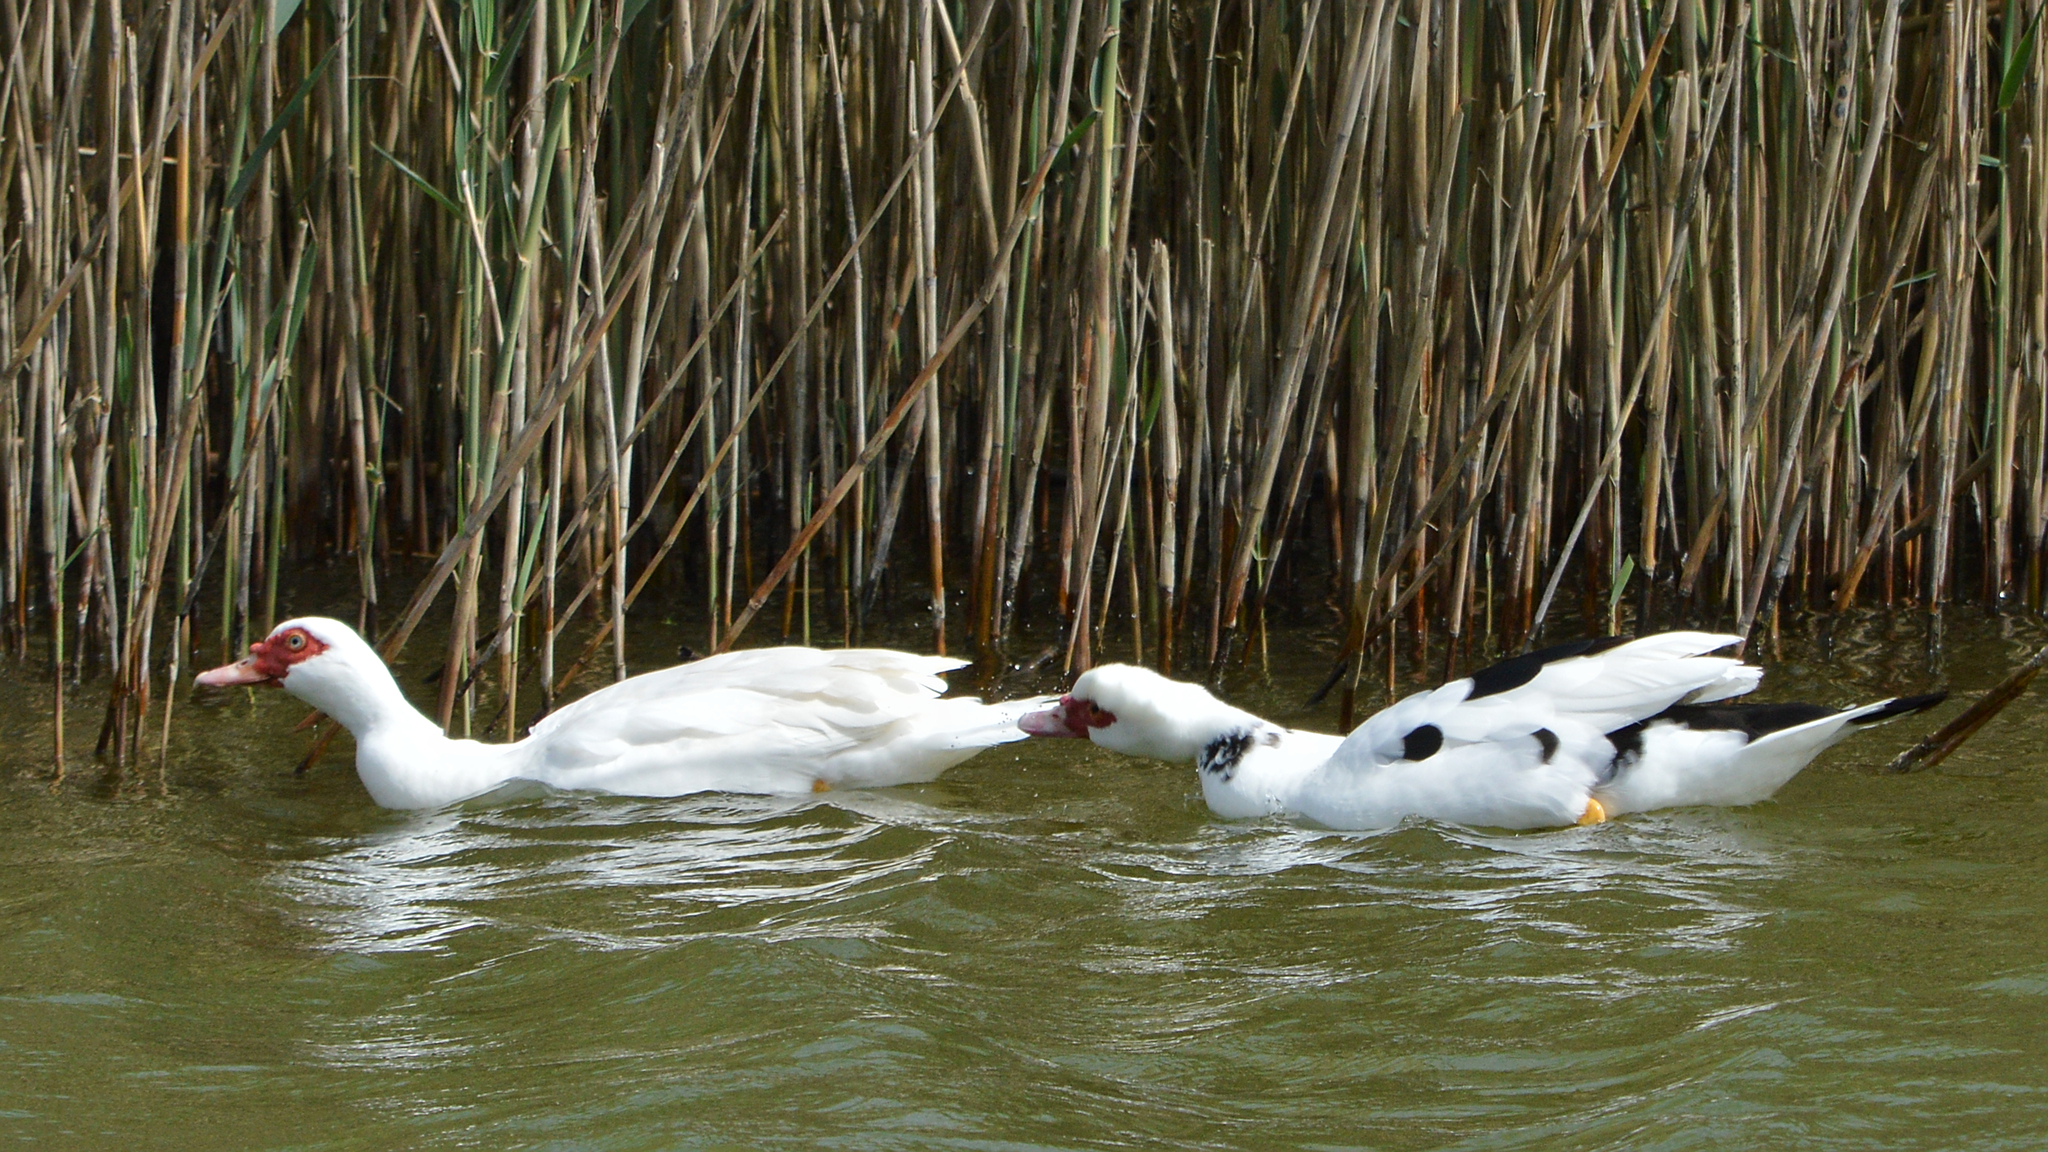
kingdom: Animalia
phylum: Chordata
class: Aves
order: Anseriformes
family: Anatidae
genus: Cairina
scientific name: Cairina moschata
